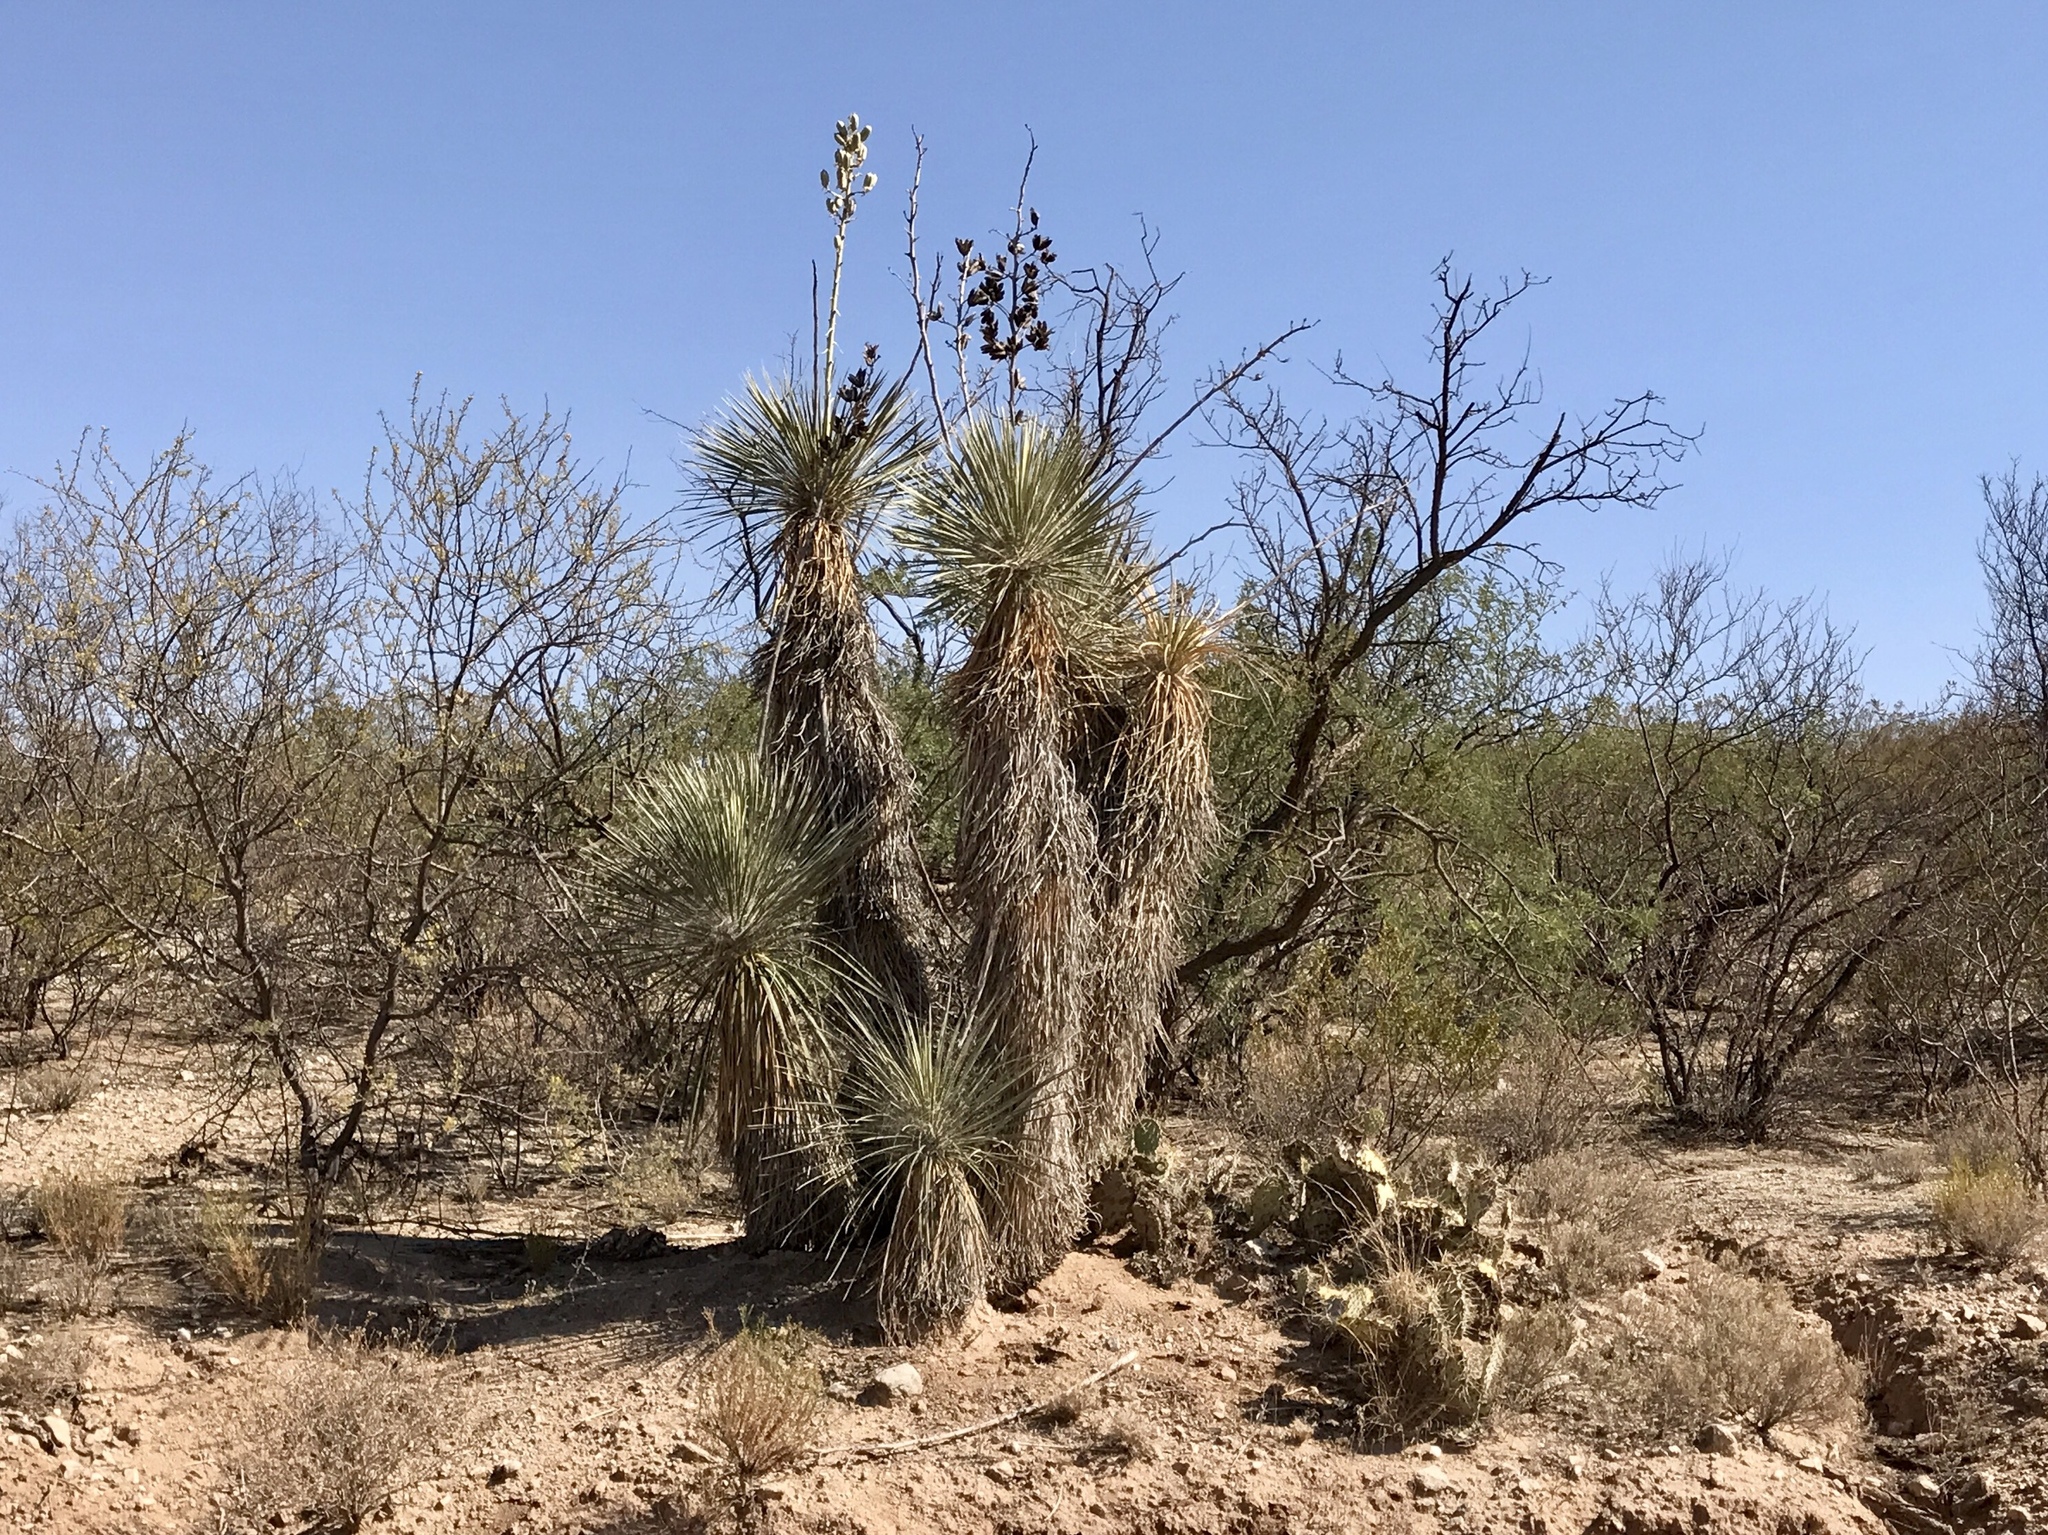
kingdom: Plantae
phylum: Tracheophyta
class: Liliopsida
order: Asparagales
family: Asparagaceae
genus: Yucca
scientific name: Yucca elata
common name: Palmella
